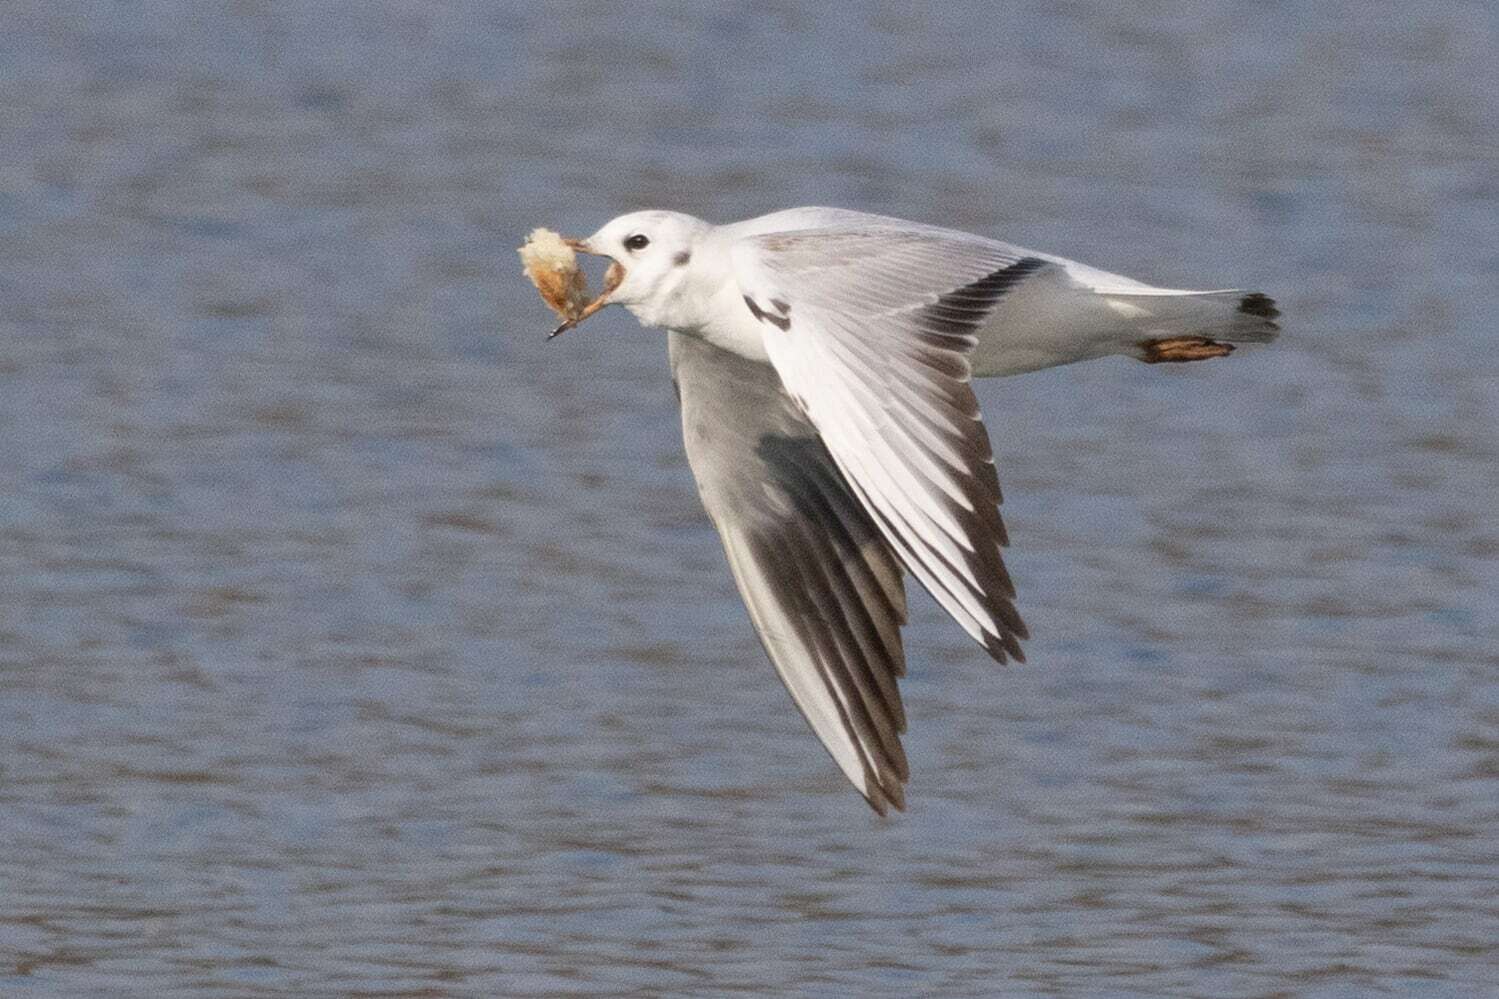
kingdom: Animalia
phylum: Chordata
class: Aves
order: Charadriiformes
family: Laridae
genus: Chroicocephalus
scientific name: Chroicocephalus ridibundus
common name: Black-headed gull
